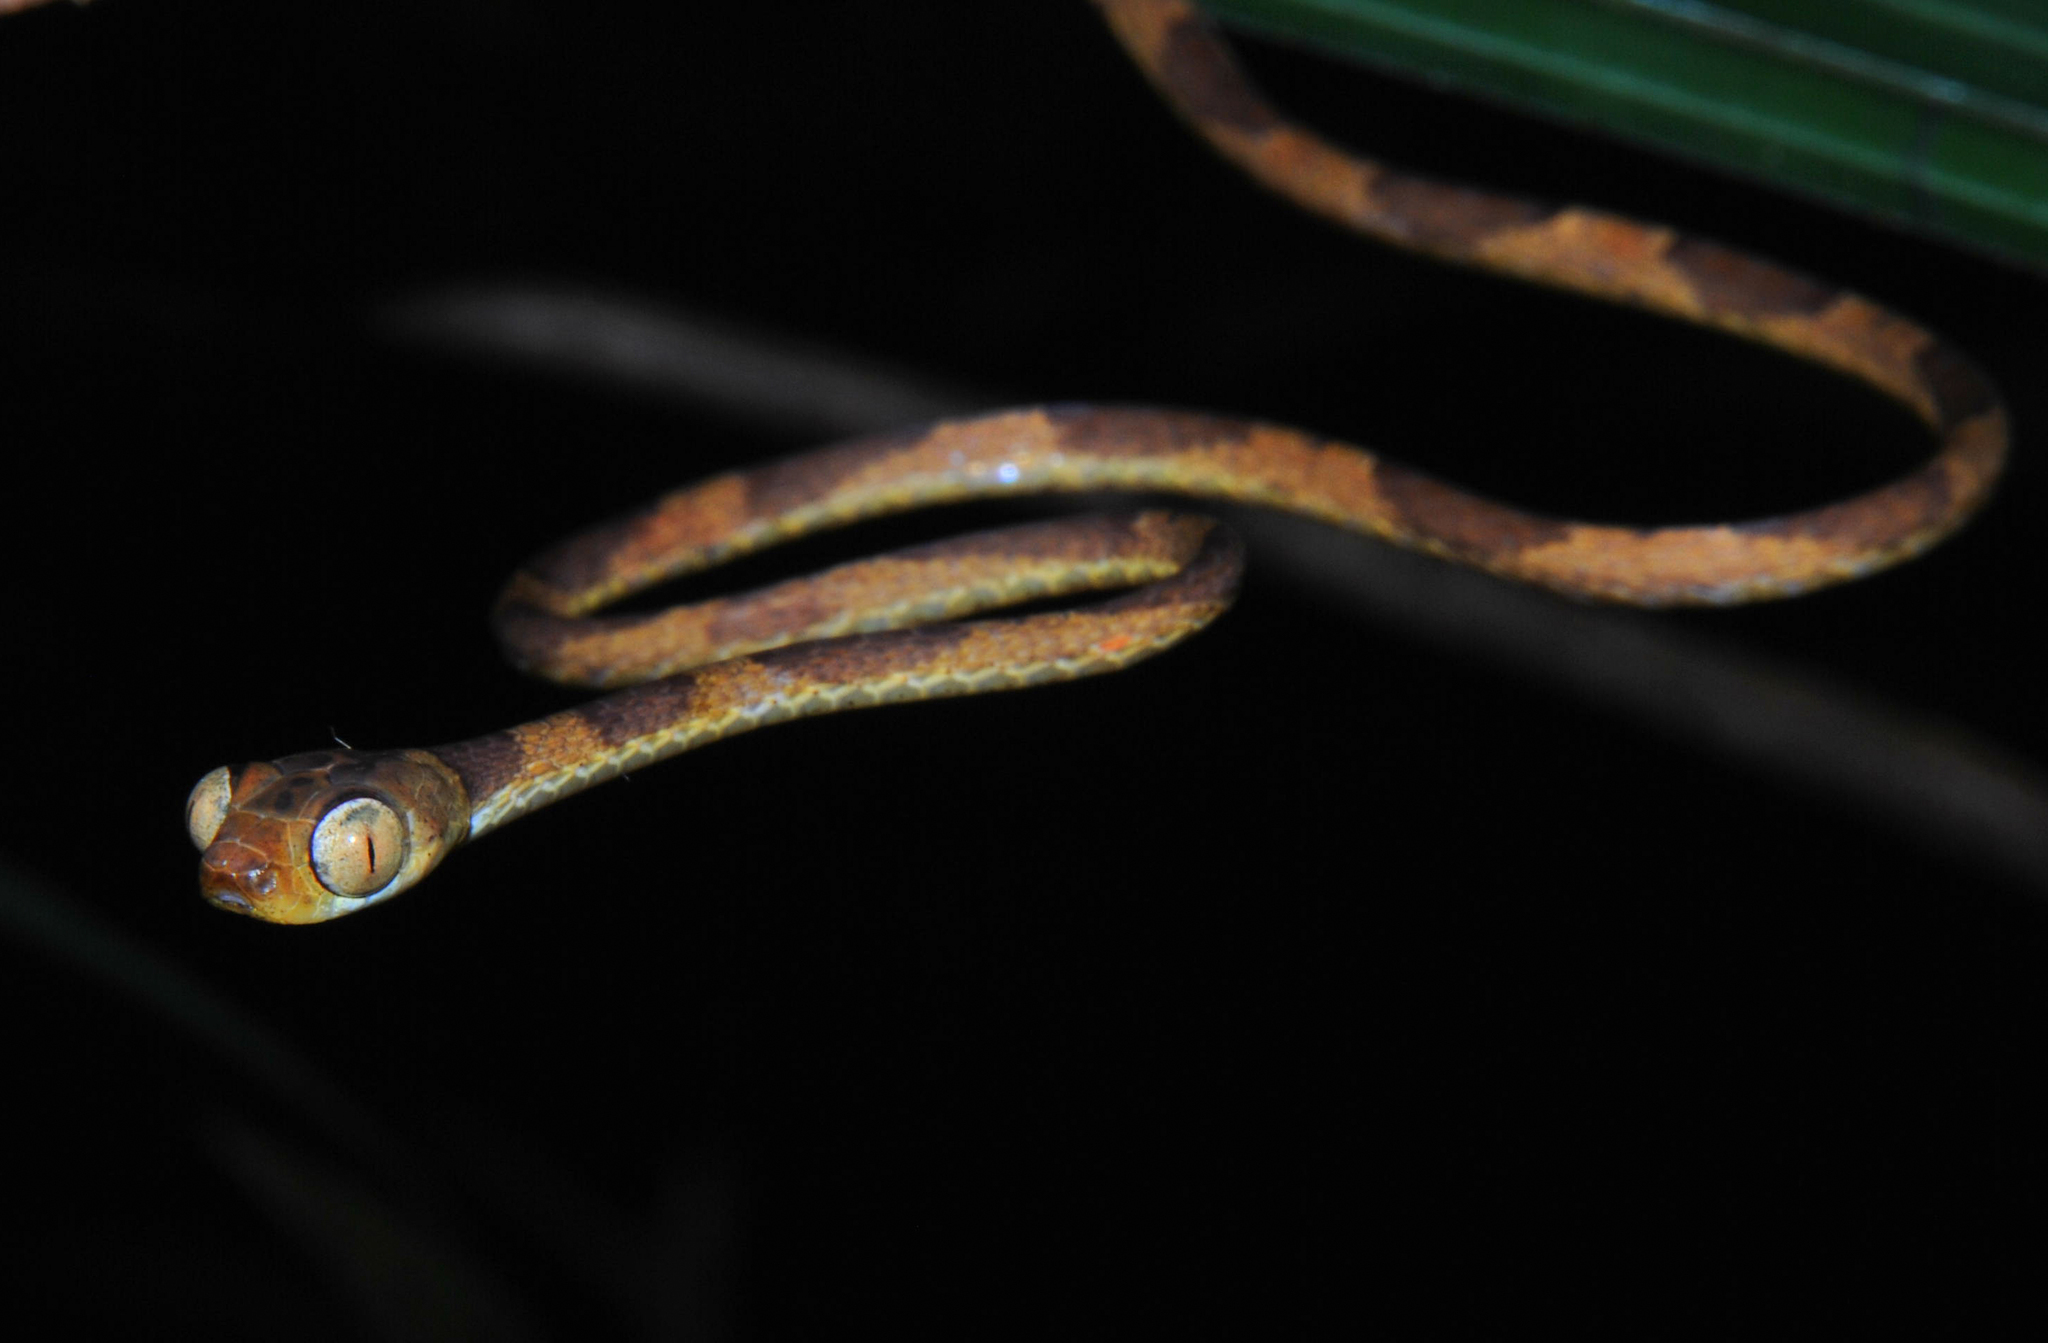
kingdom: Animalia
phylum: Chordata
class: Squamata
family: Colubridae
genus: Imantodes
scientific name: Imantodes lentiferus
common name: Amazon basin tree snake
